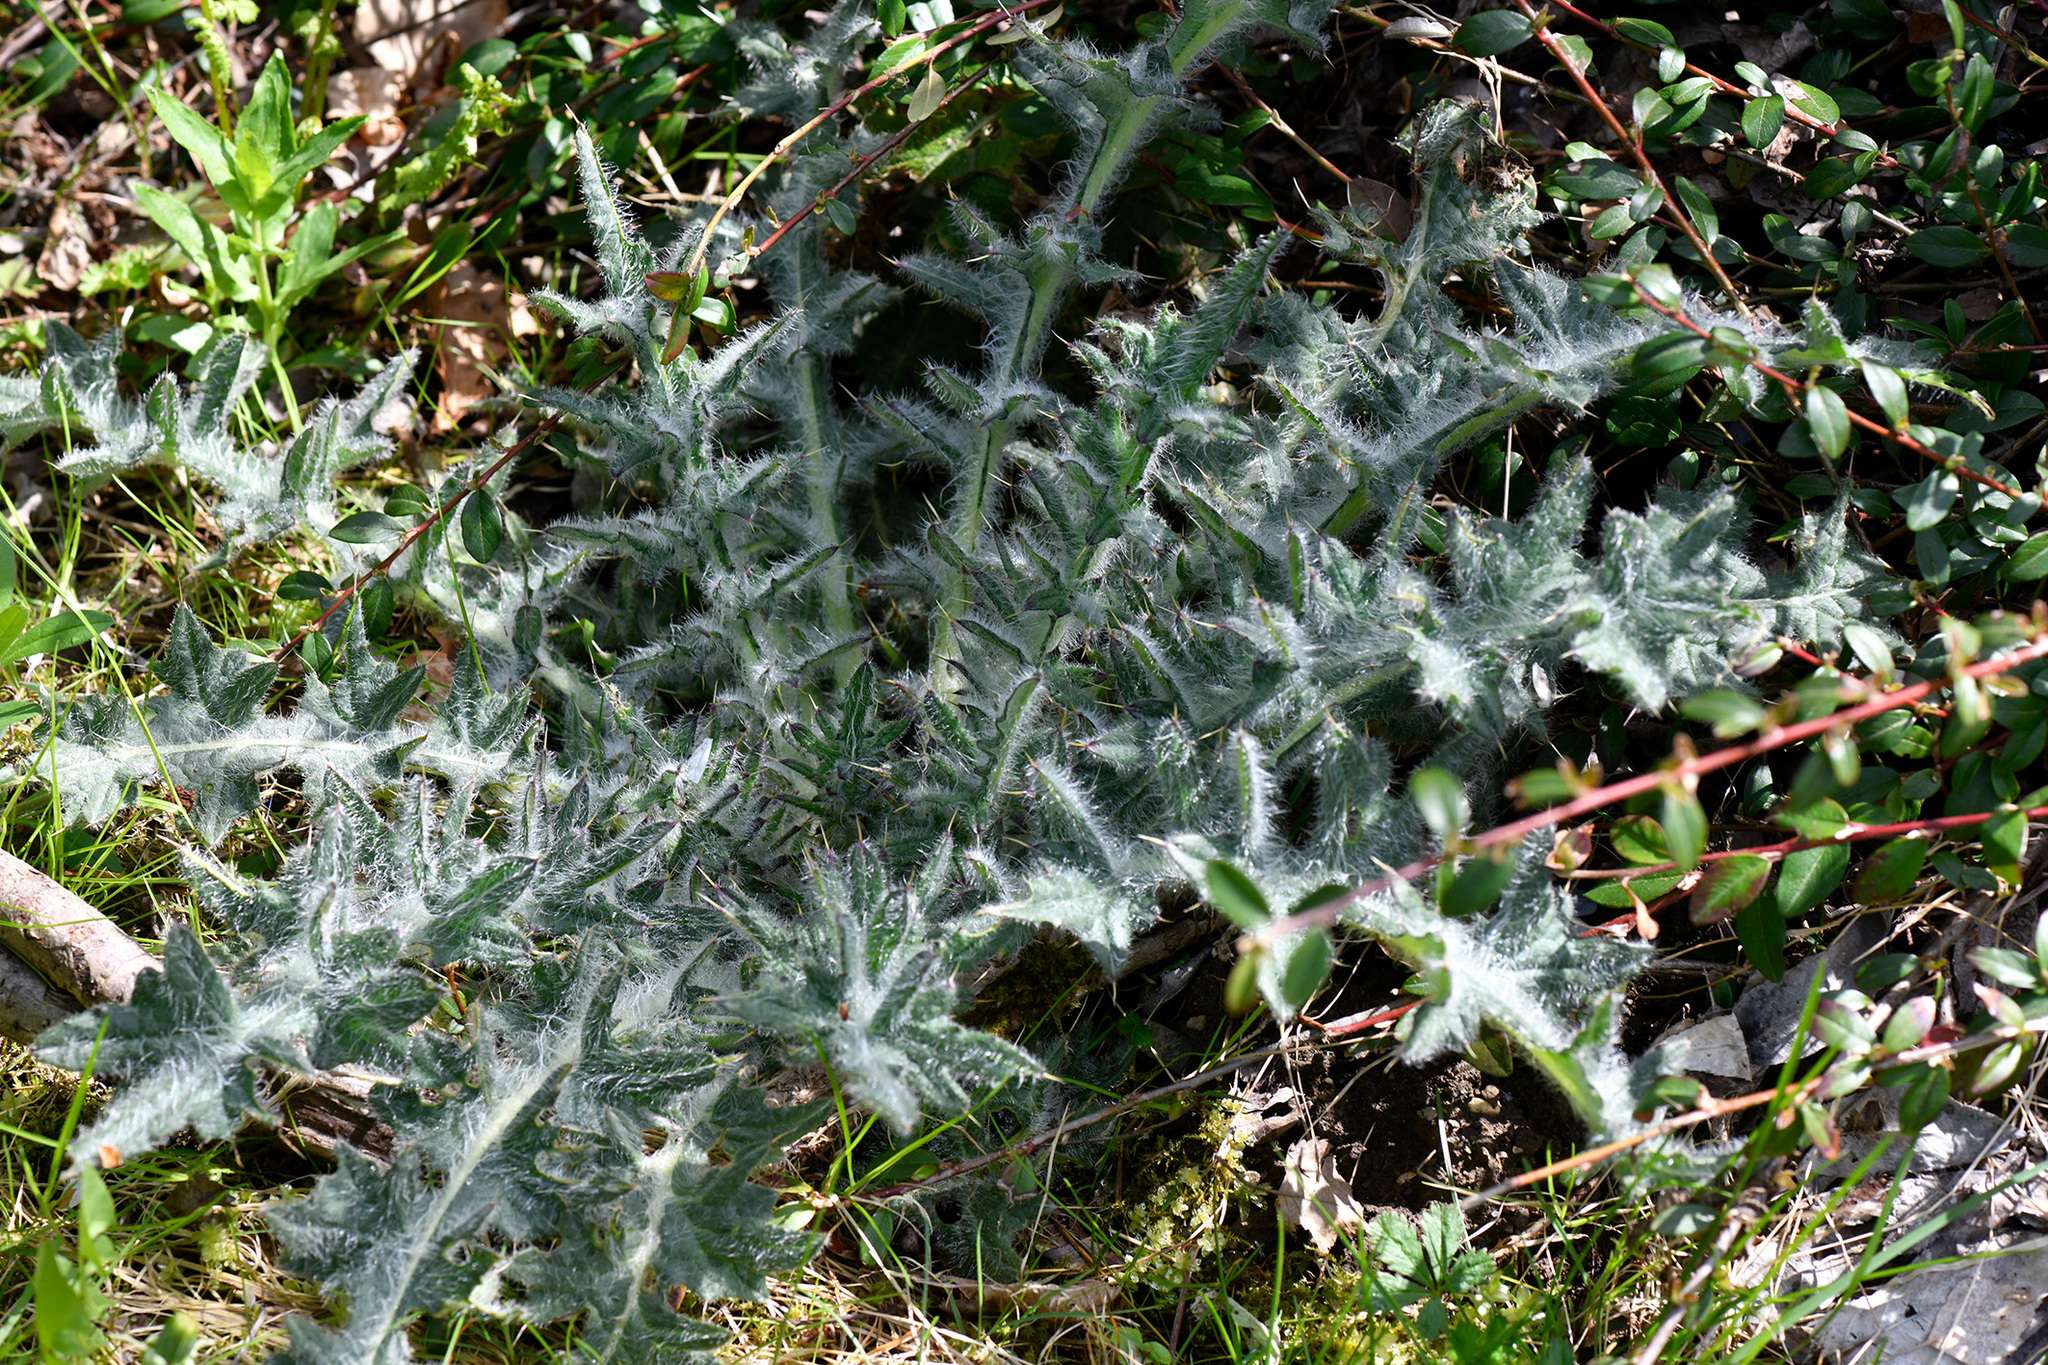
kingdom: Plantae
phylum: Tracheophyta
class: Magnoliopsida
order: Asterales
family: Asteraceae
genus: Cirsium
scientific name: Cirsium vulgare
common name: Bull thistle
